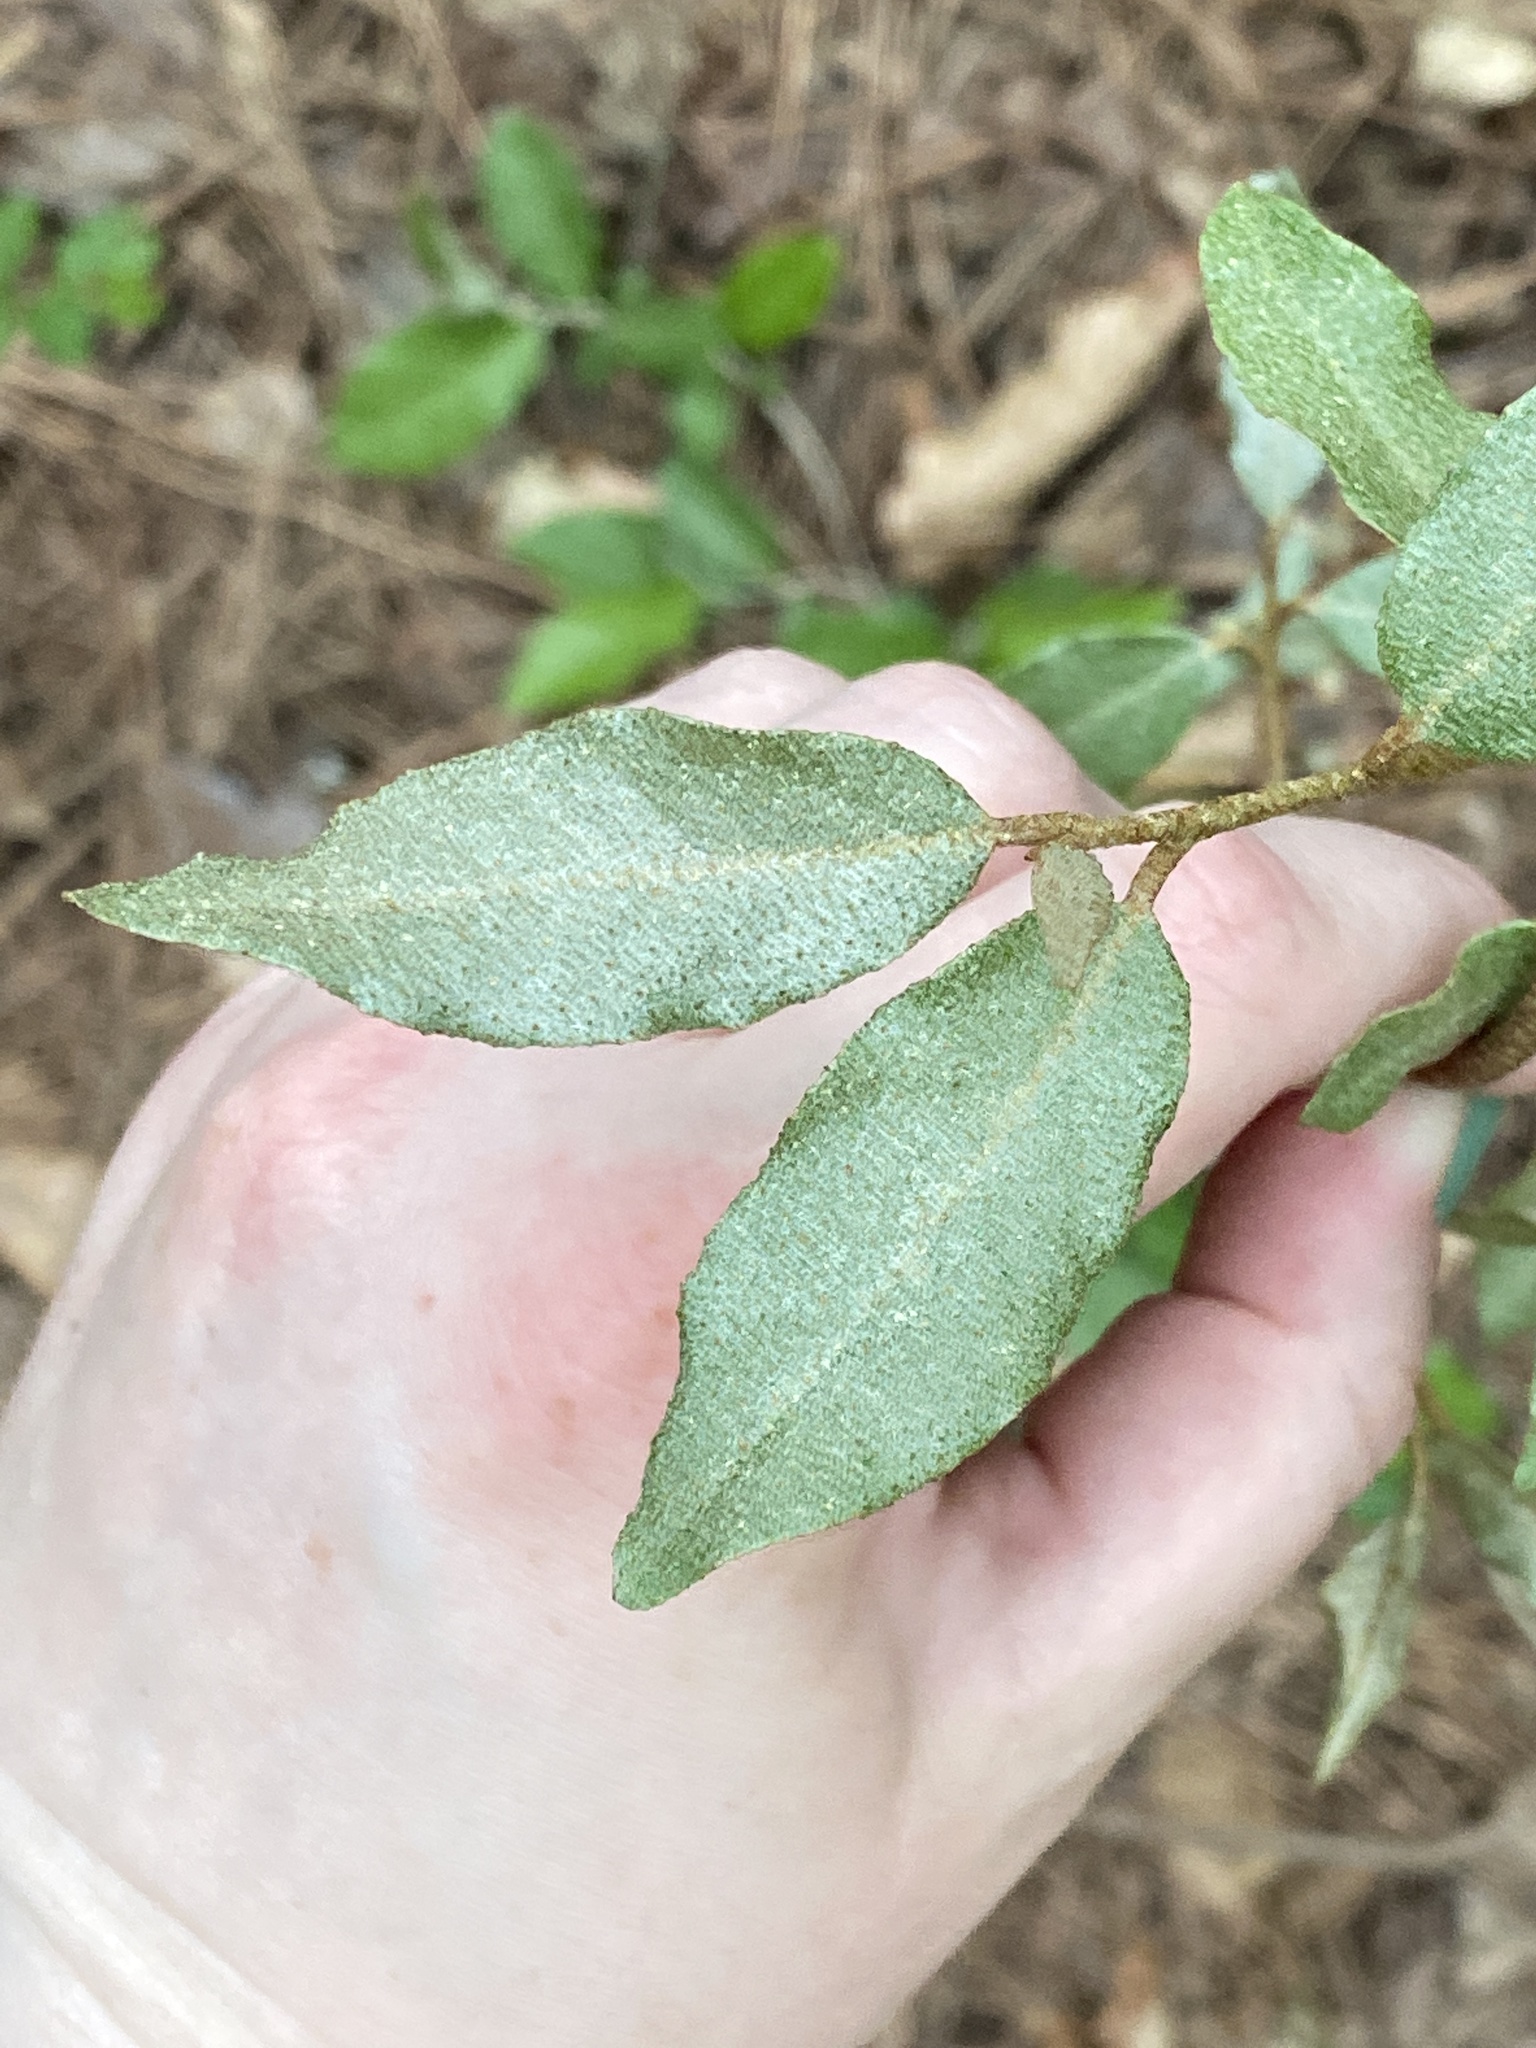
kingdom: Plantae
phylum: Tracheophyta
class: Magnoliopsida
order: Rosales
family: Elaeagnaceae
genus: Elaeagnus
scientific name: Elaeagnus pungens
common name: Spiny oleaster
